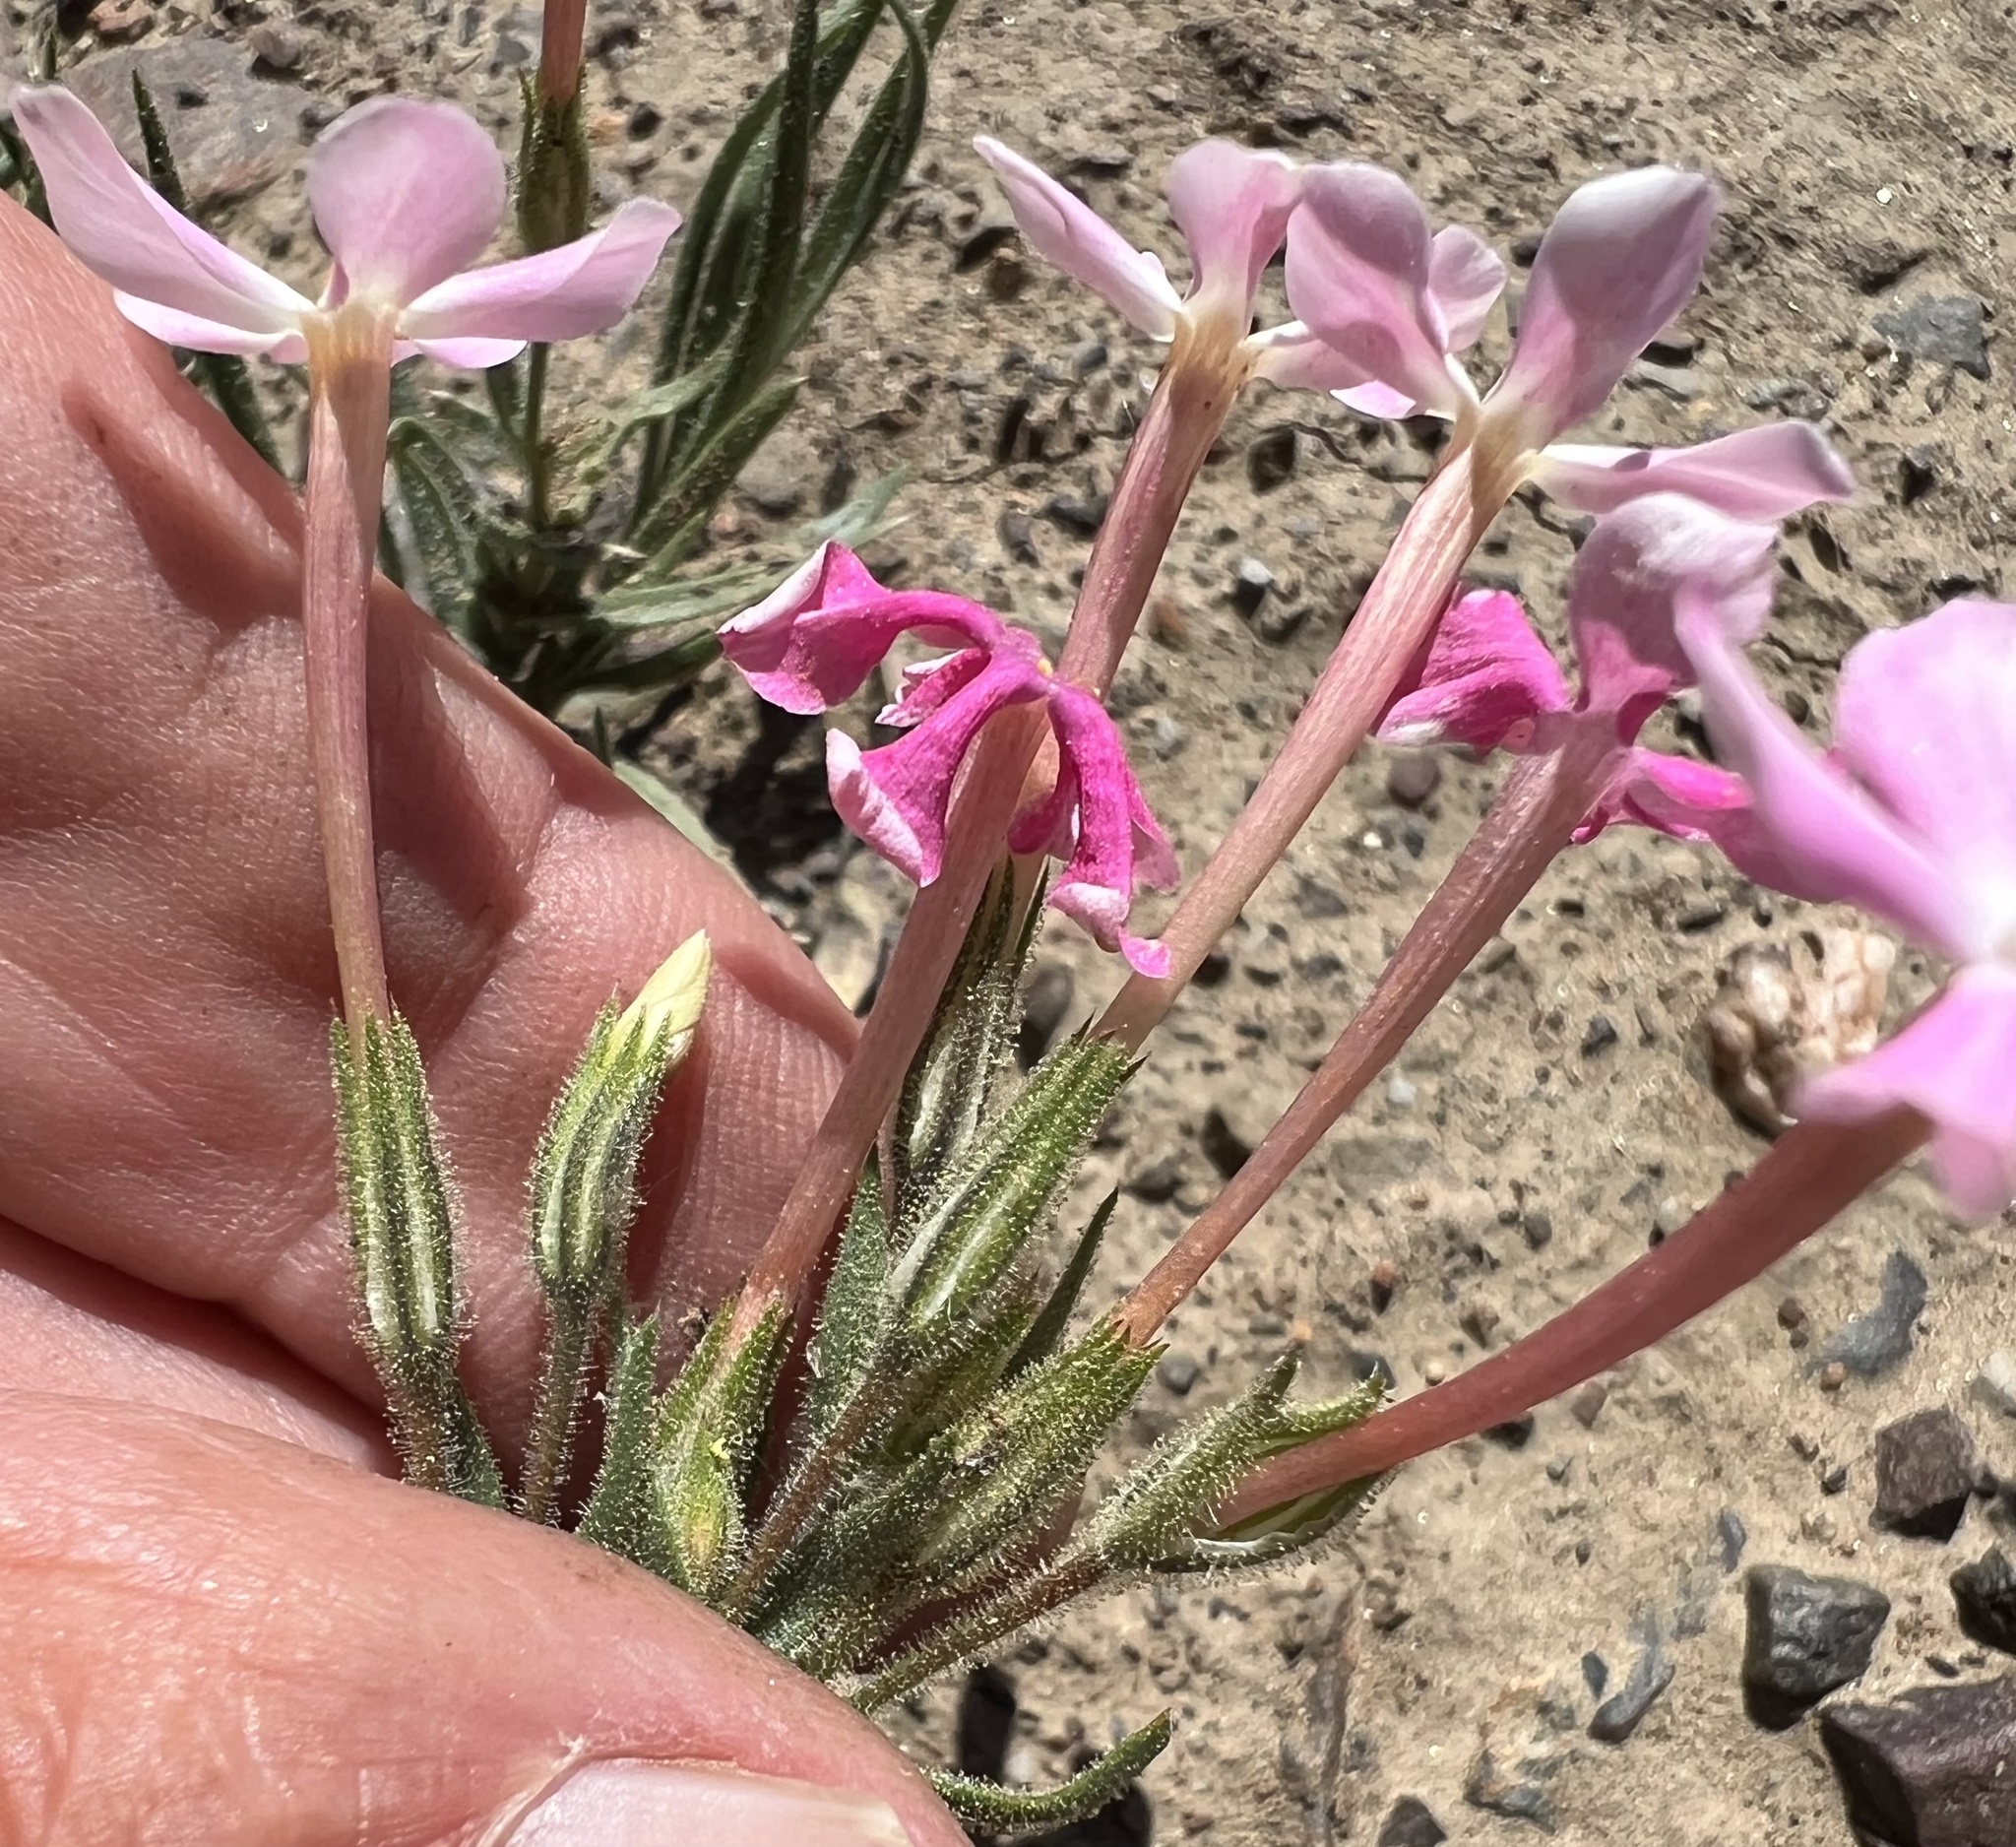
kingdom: Plantae
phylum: Tracheophyta
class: Magnoliopsida
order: Ericales
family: Polemoniaceae
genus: Phlox
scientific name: Phlox longifolia
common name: Longleaf phlox
